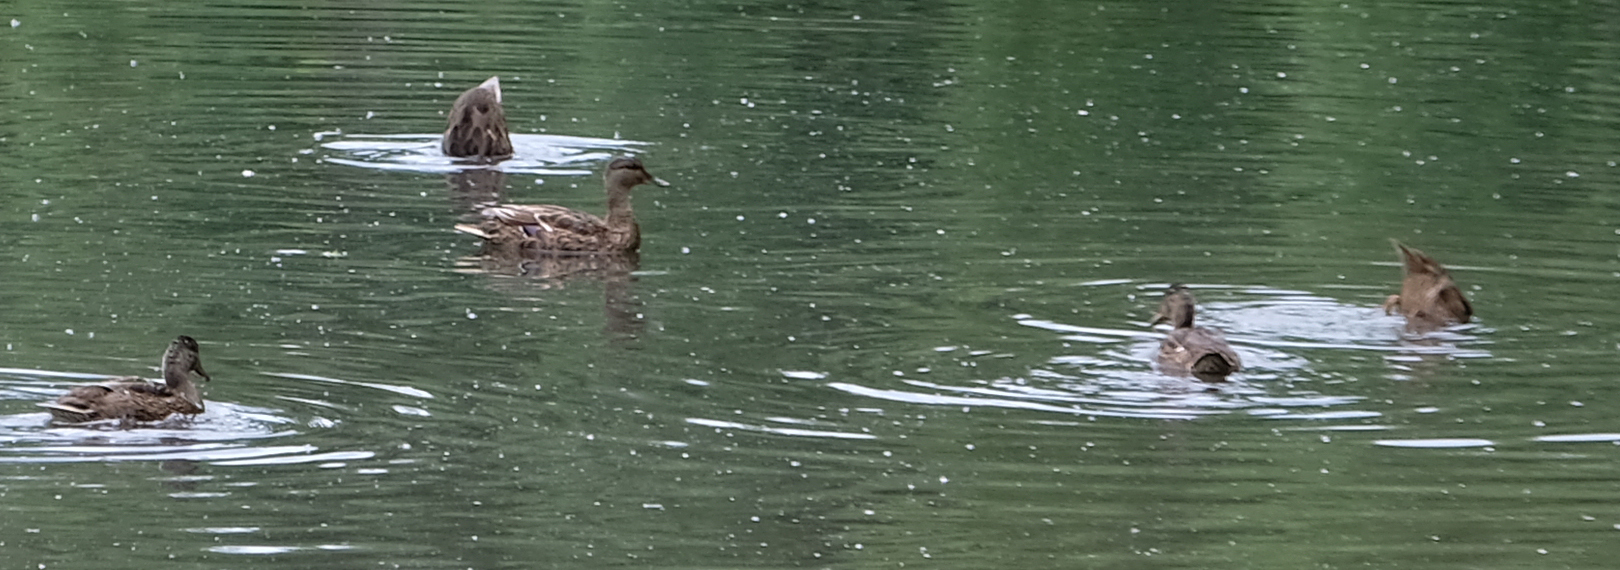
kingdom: Animalia
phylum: Chordata
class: Aves
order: Anseriformes
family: Anatidae
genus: Anas
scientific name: Anas platyrhynchos
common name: Mallard
